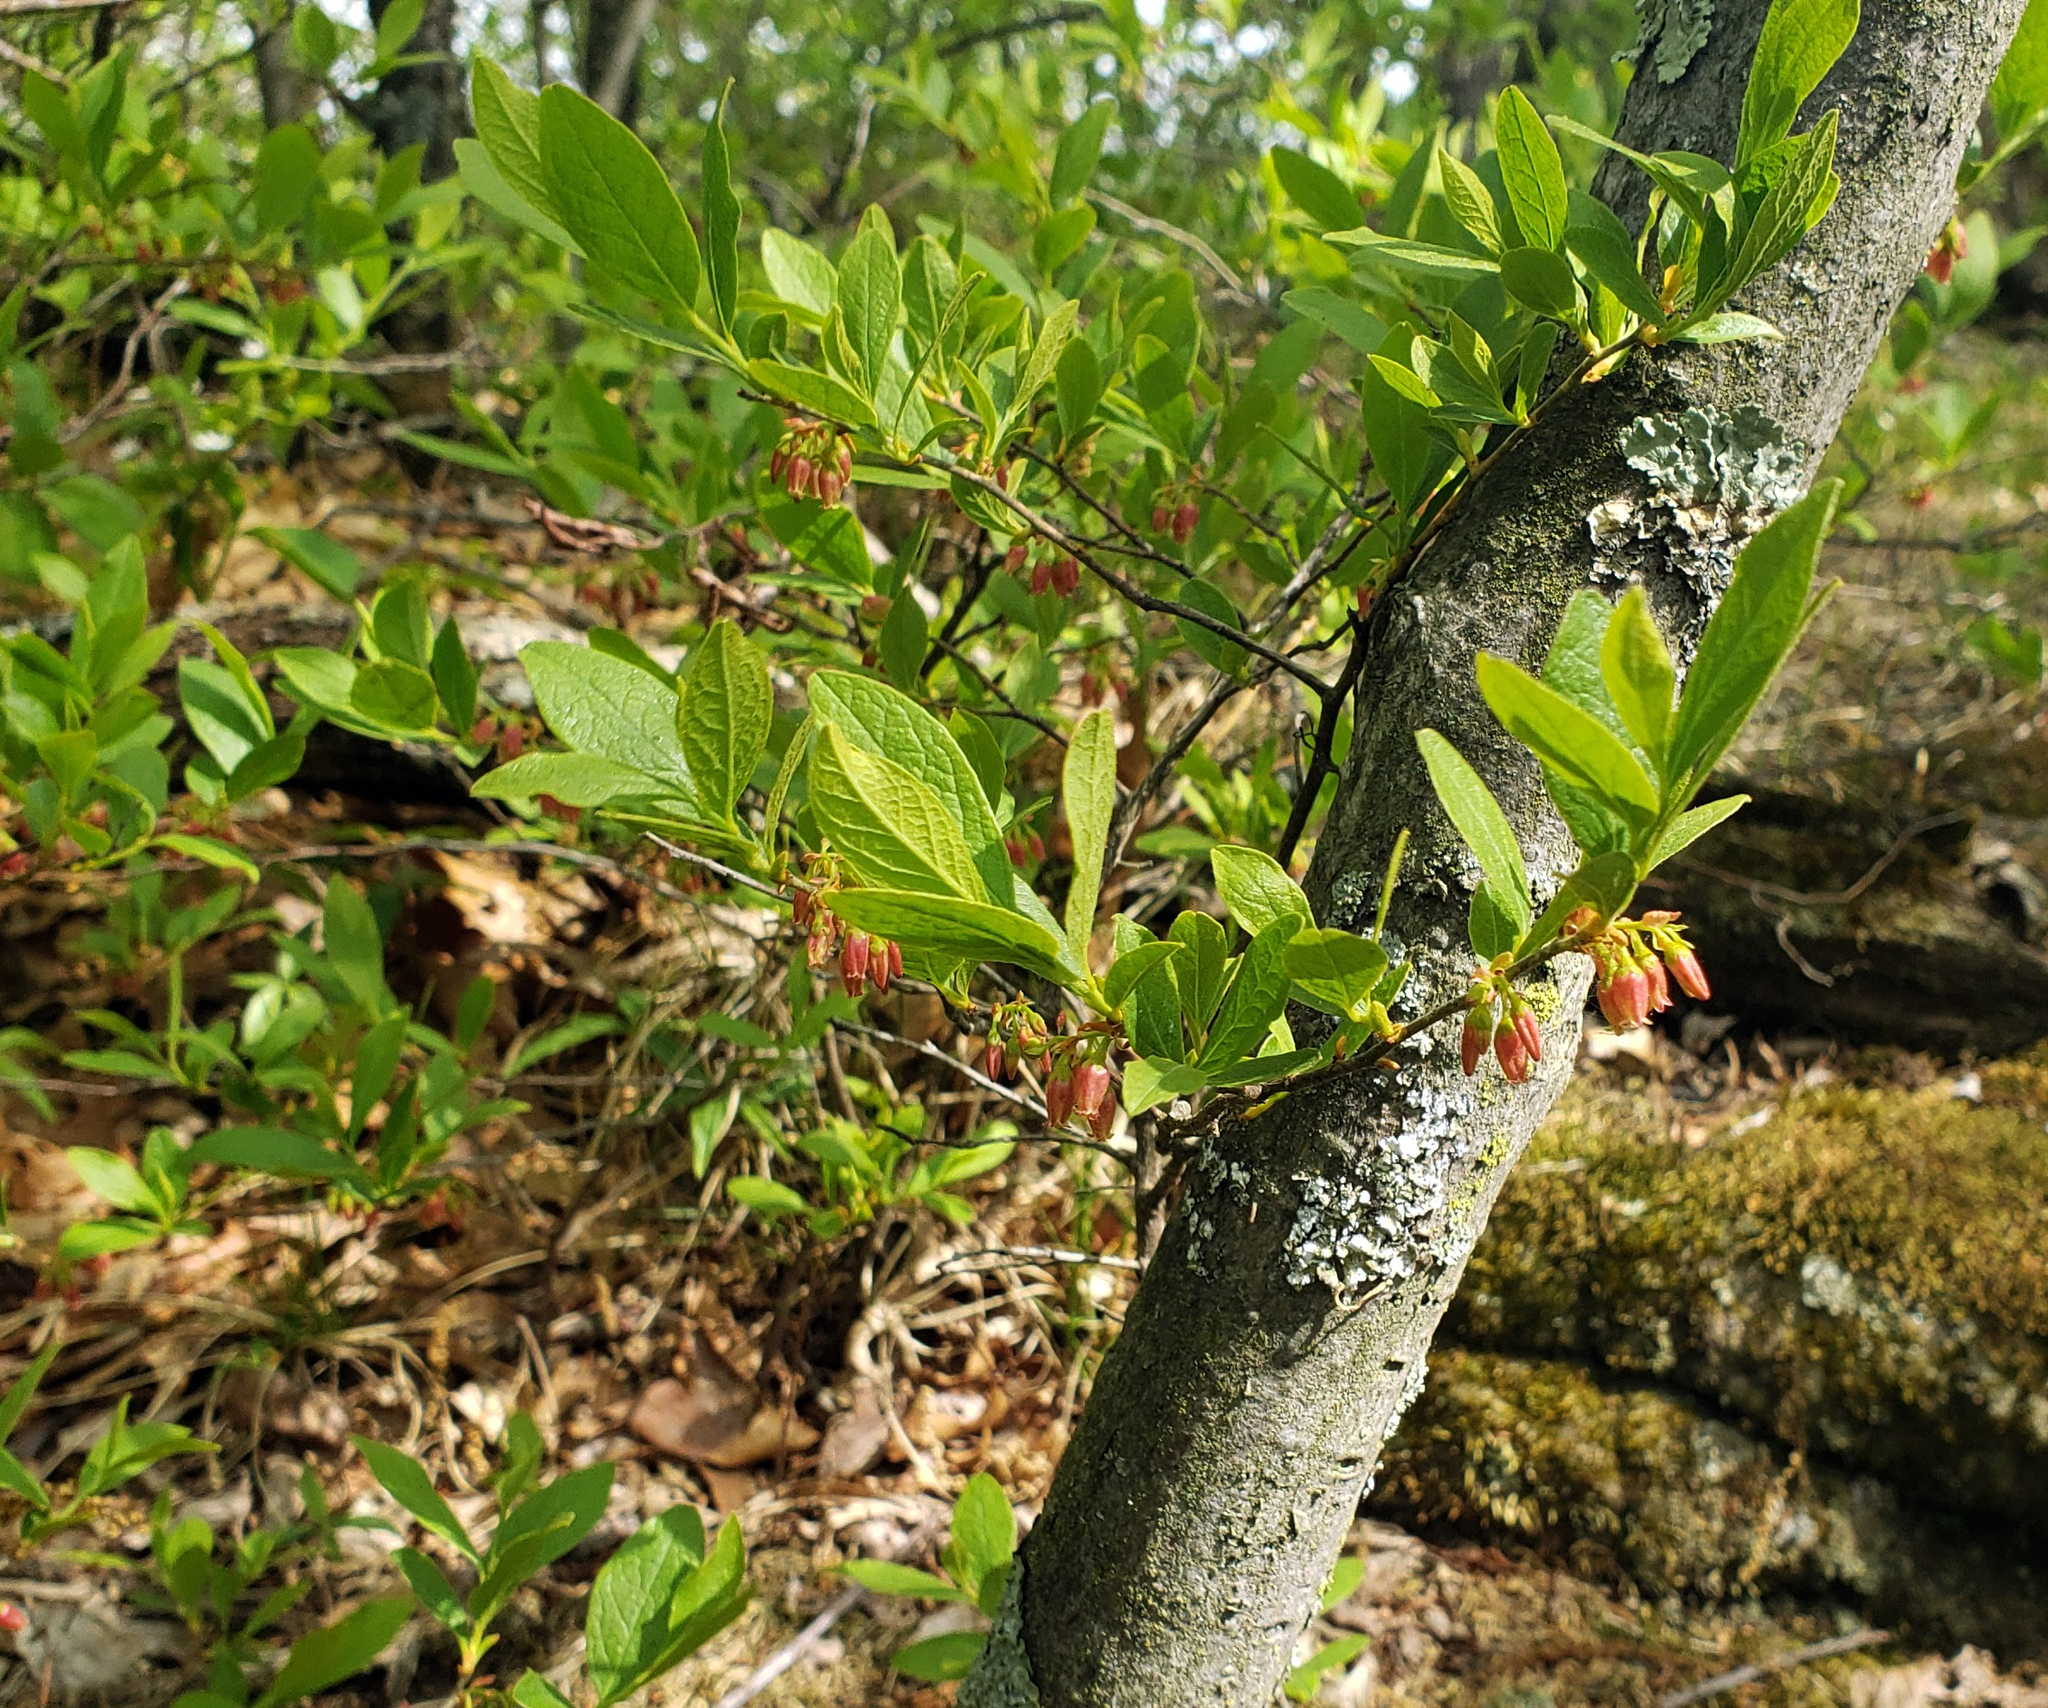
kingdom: Plantae
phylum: Tracheophyta
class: Magnoliopsida
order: Ericales
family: Ericaceae
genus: Gaylussacia
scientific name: Gaylussacia baccata
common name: Black huckleberry
